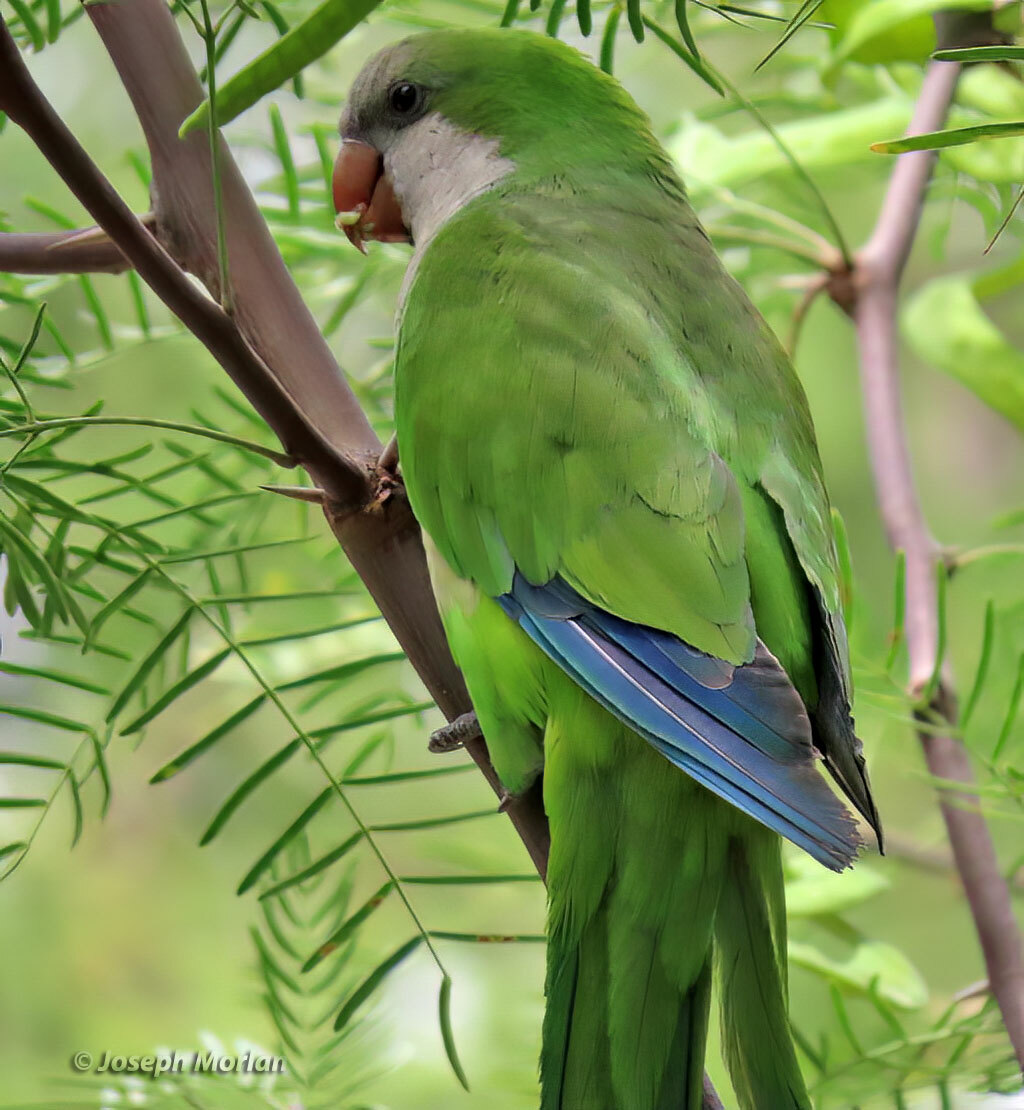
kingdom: Animalia
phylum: Chordata
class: Aves
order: Psittaciformes
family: Psittacidae
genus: Myiopsitta
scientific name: Myiopsitta monachus
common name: Monk parakeet
